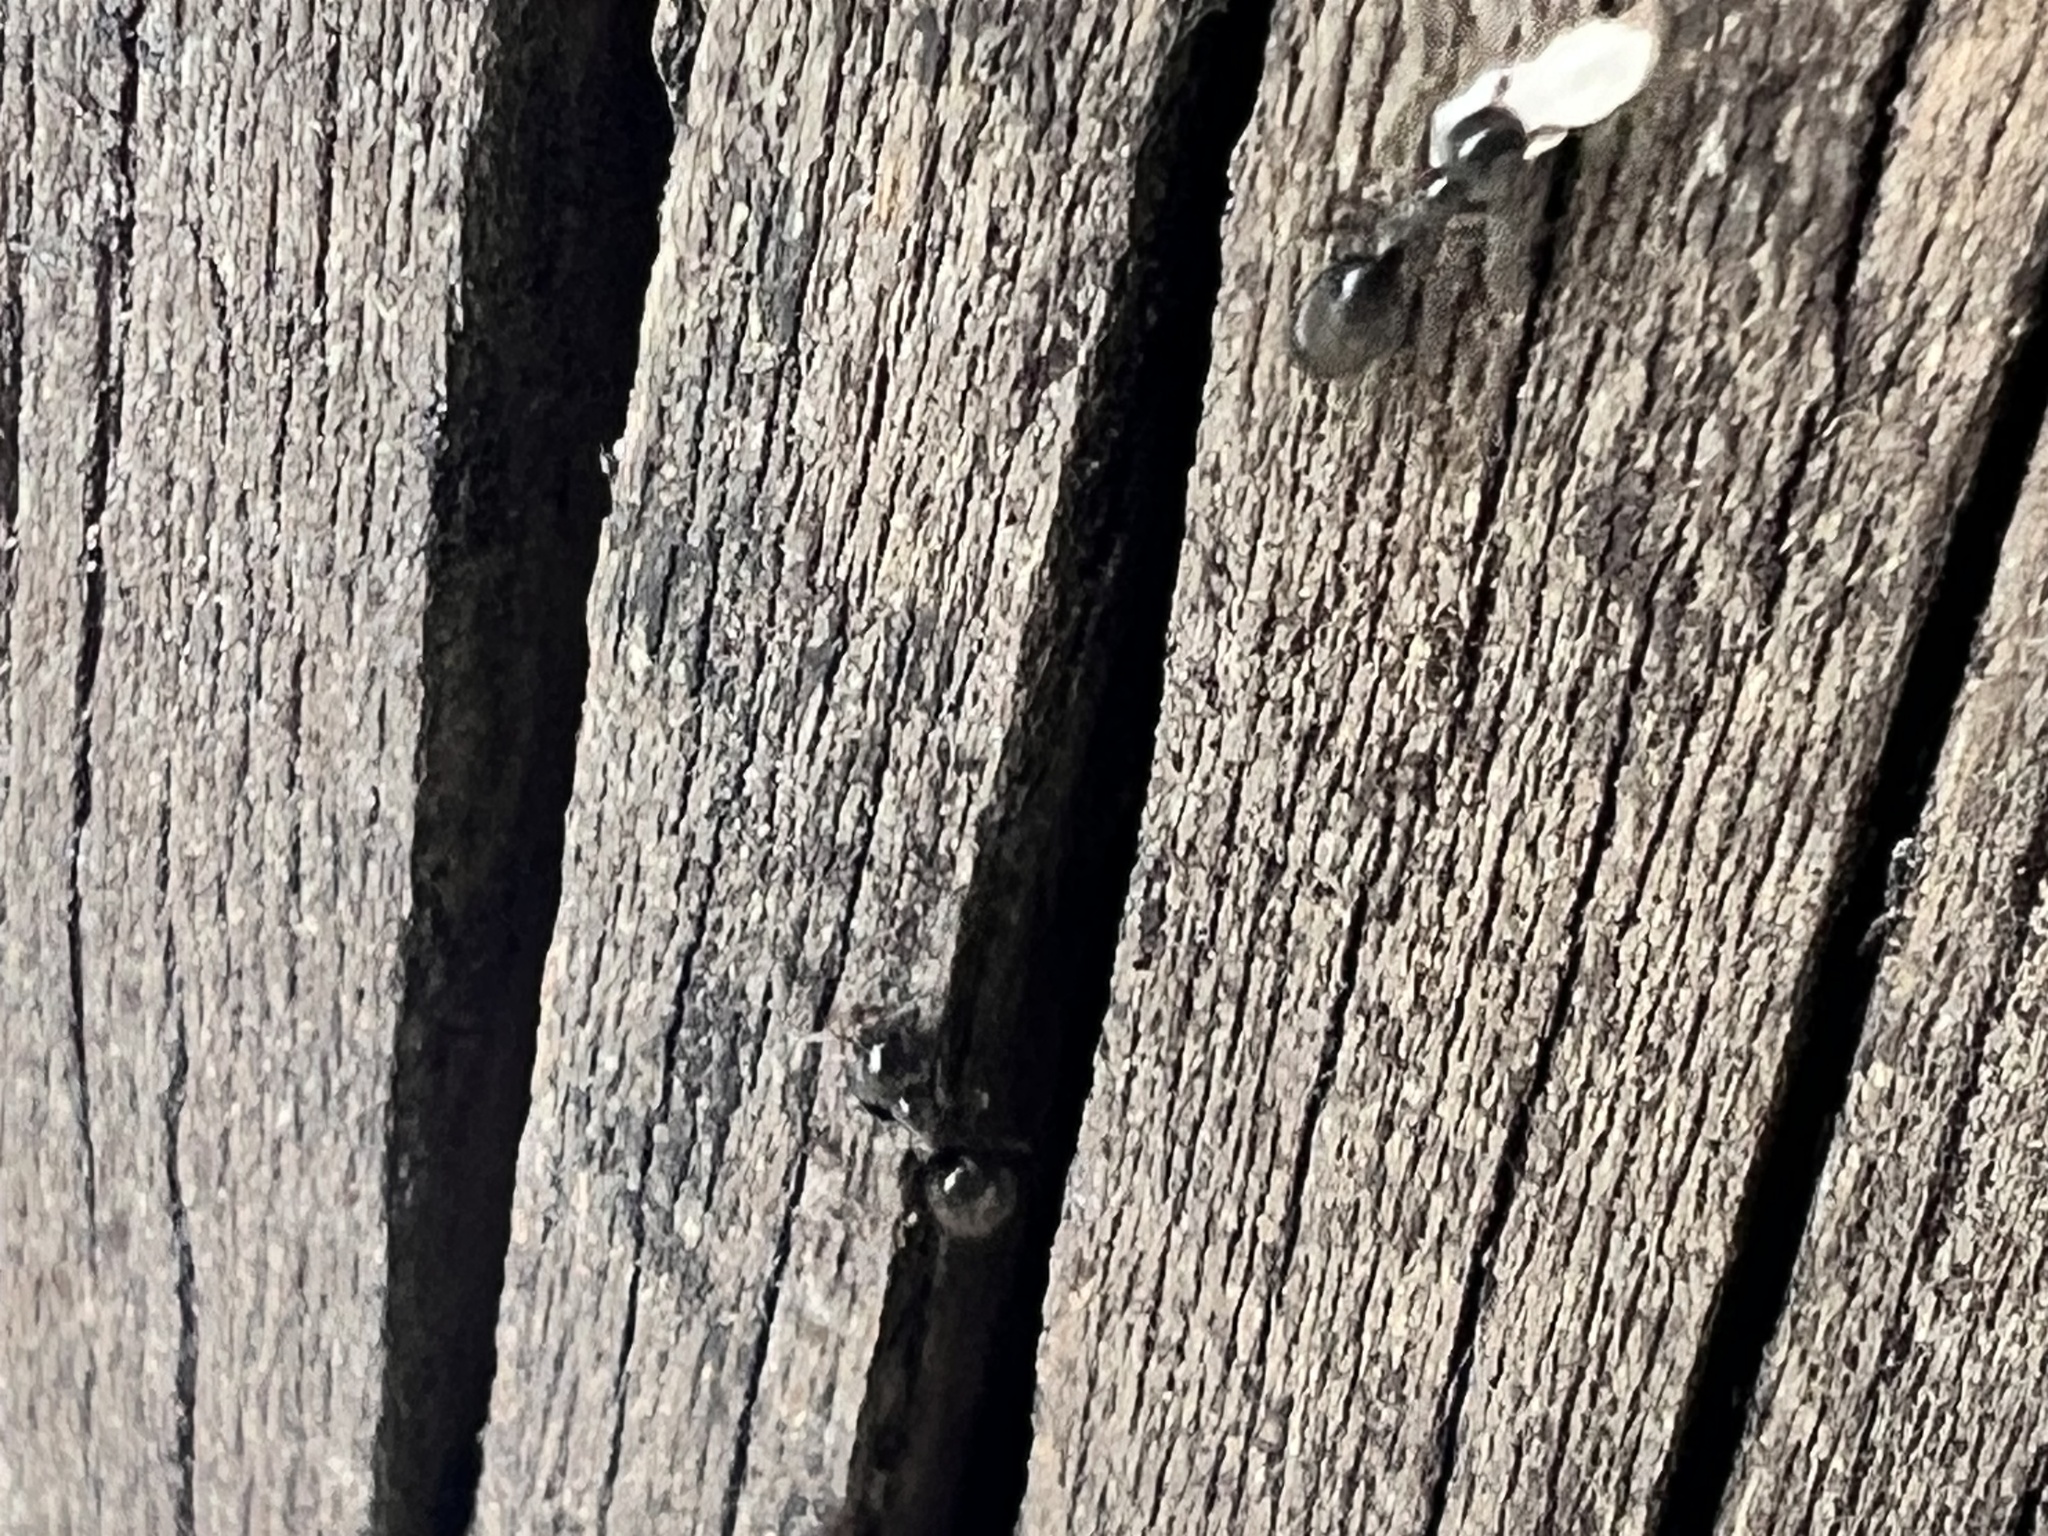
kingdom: Animalia
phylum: Arthropoda
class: Insecta
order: Hymenoptera
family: Formicidae
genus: Technomyrmex
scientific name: Technomyrmex jocosus
